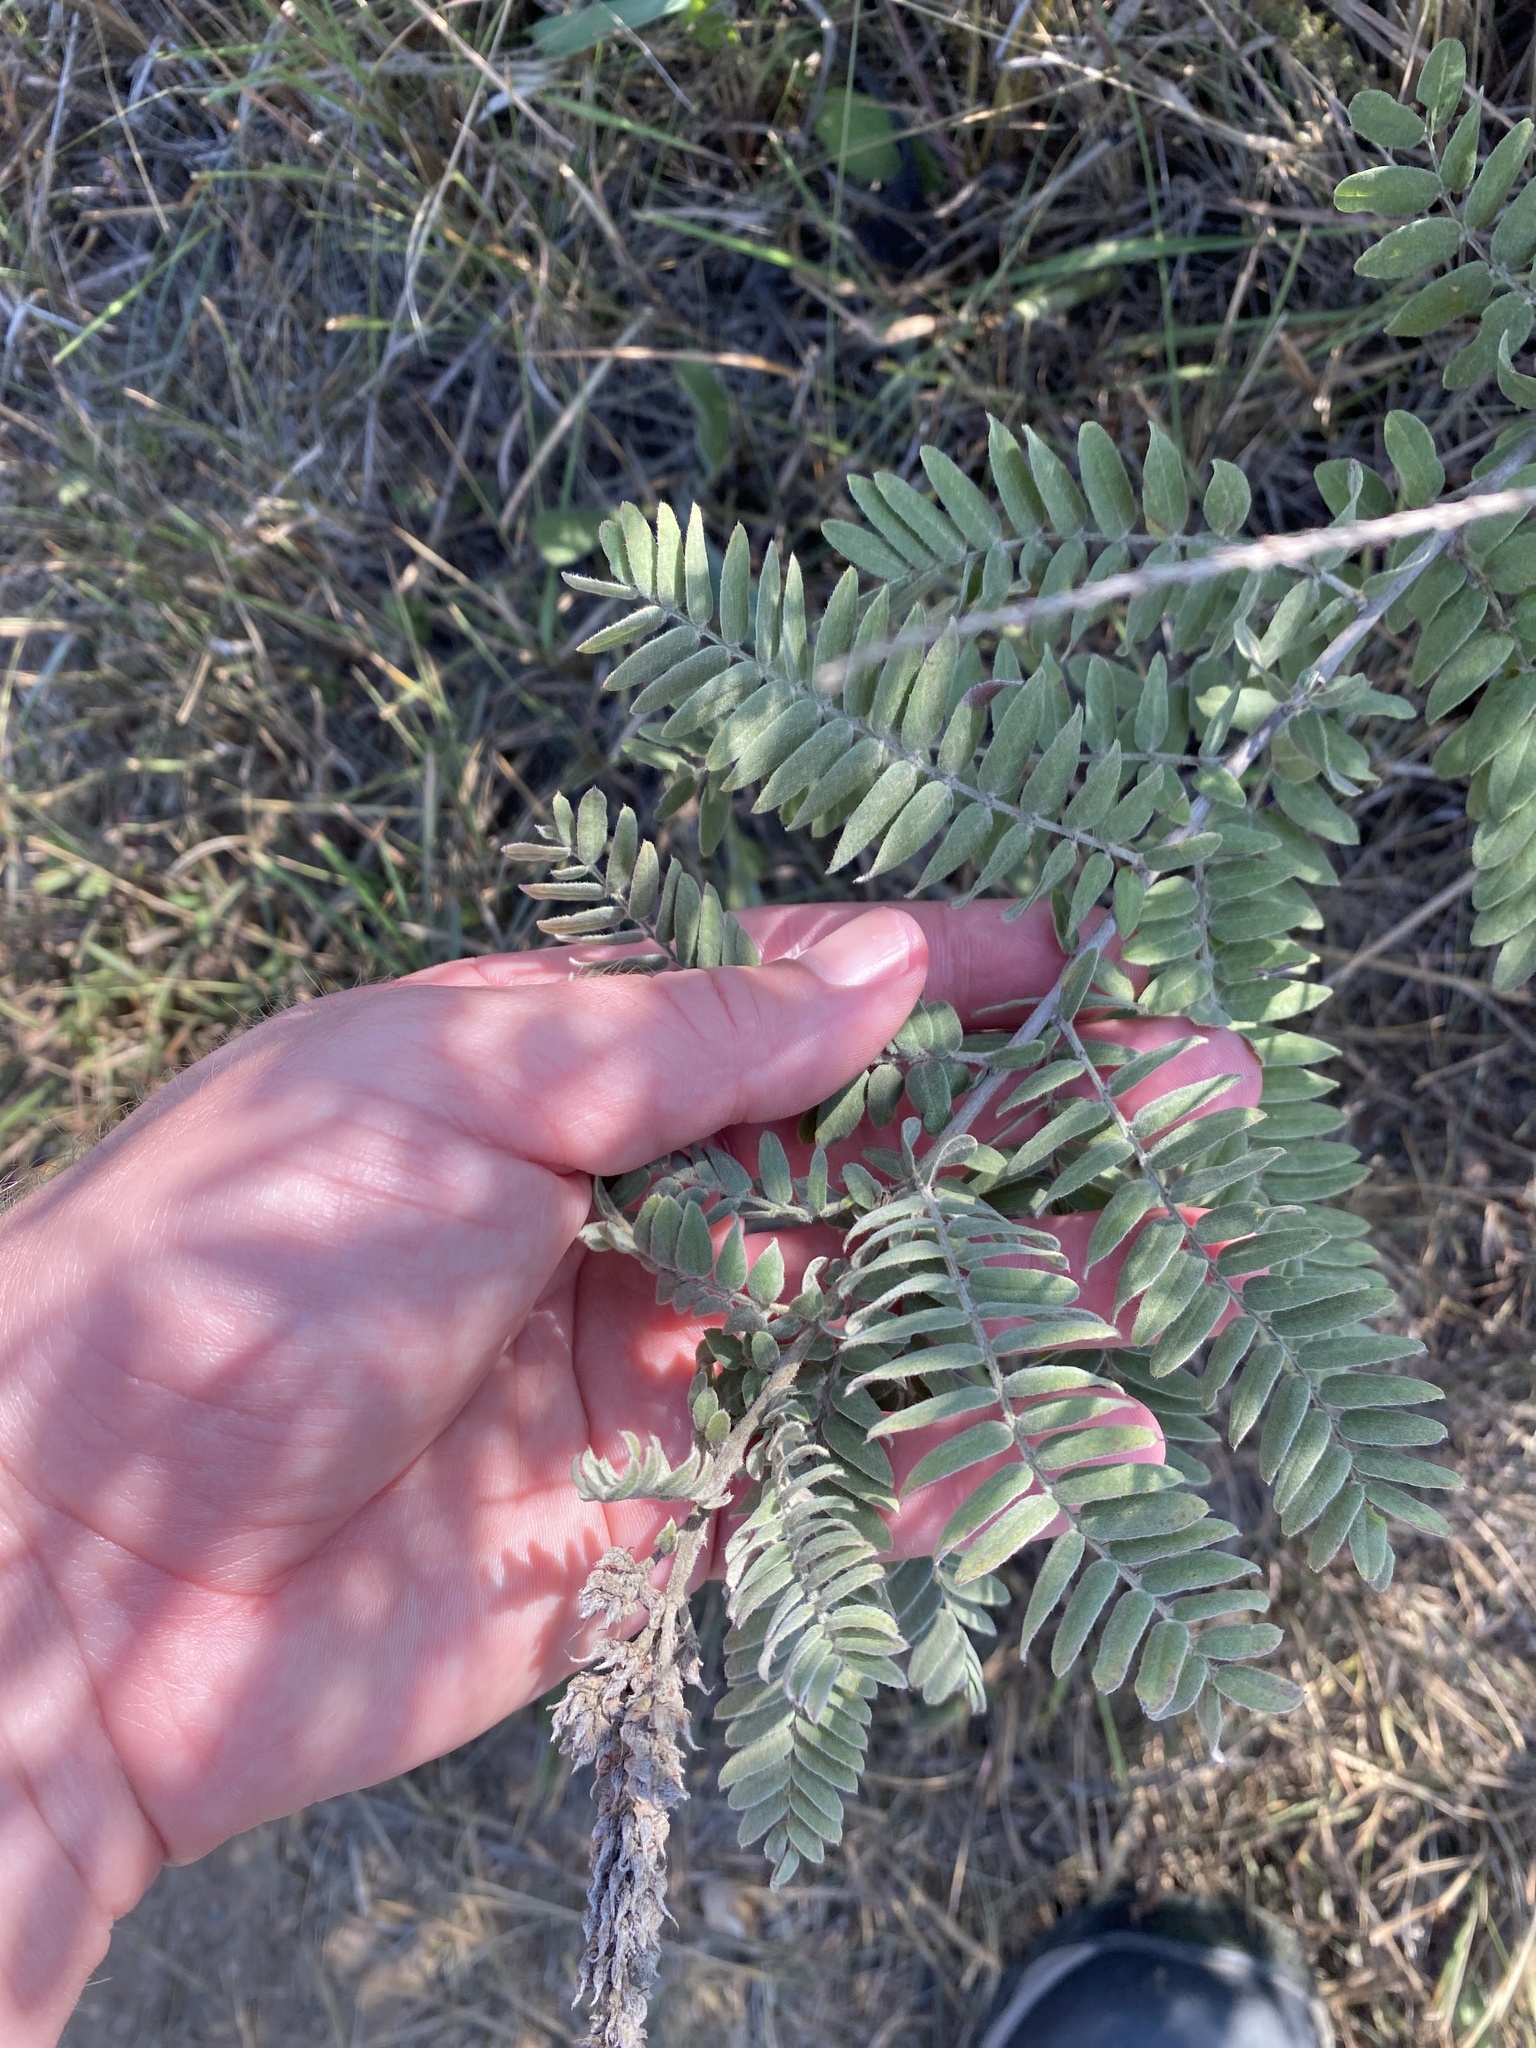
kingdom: Plantae
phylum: Tracheophyta
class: Magnoliopsida
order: Fabales
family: Fabaceae
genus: Amorpha
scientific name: Amorpha canescens
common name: Leadplant
